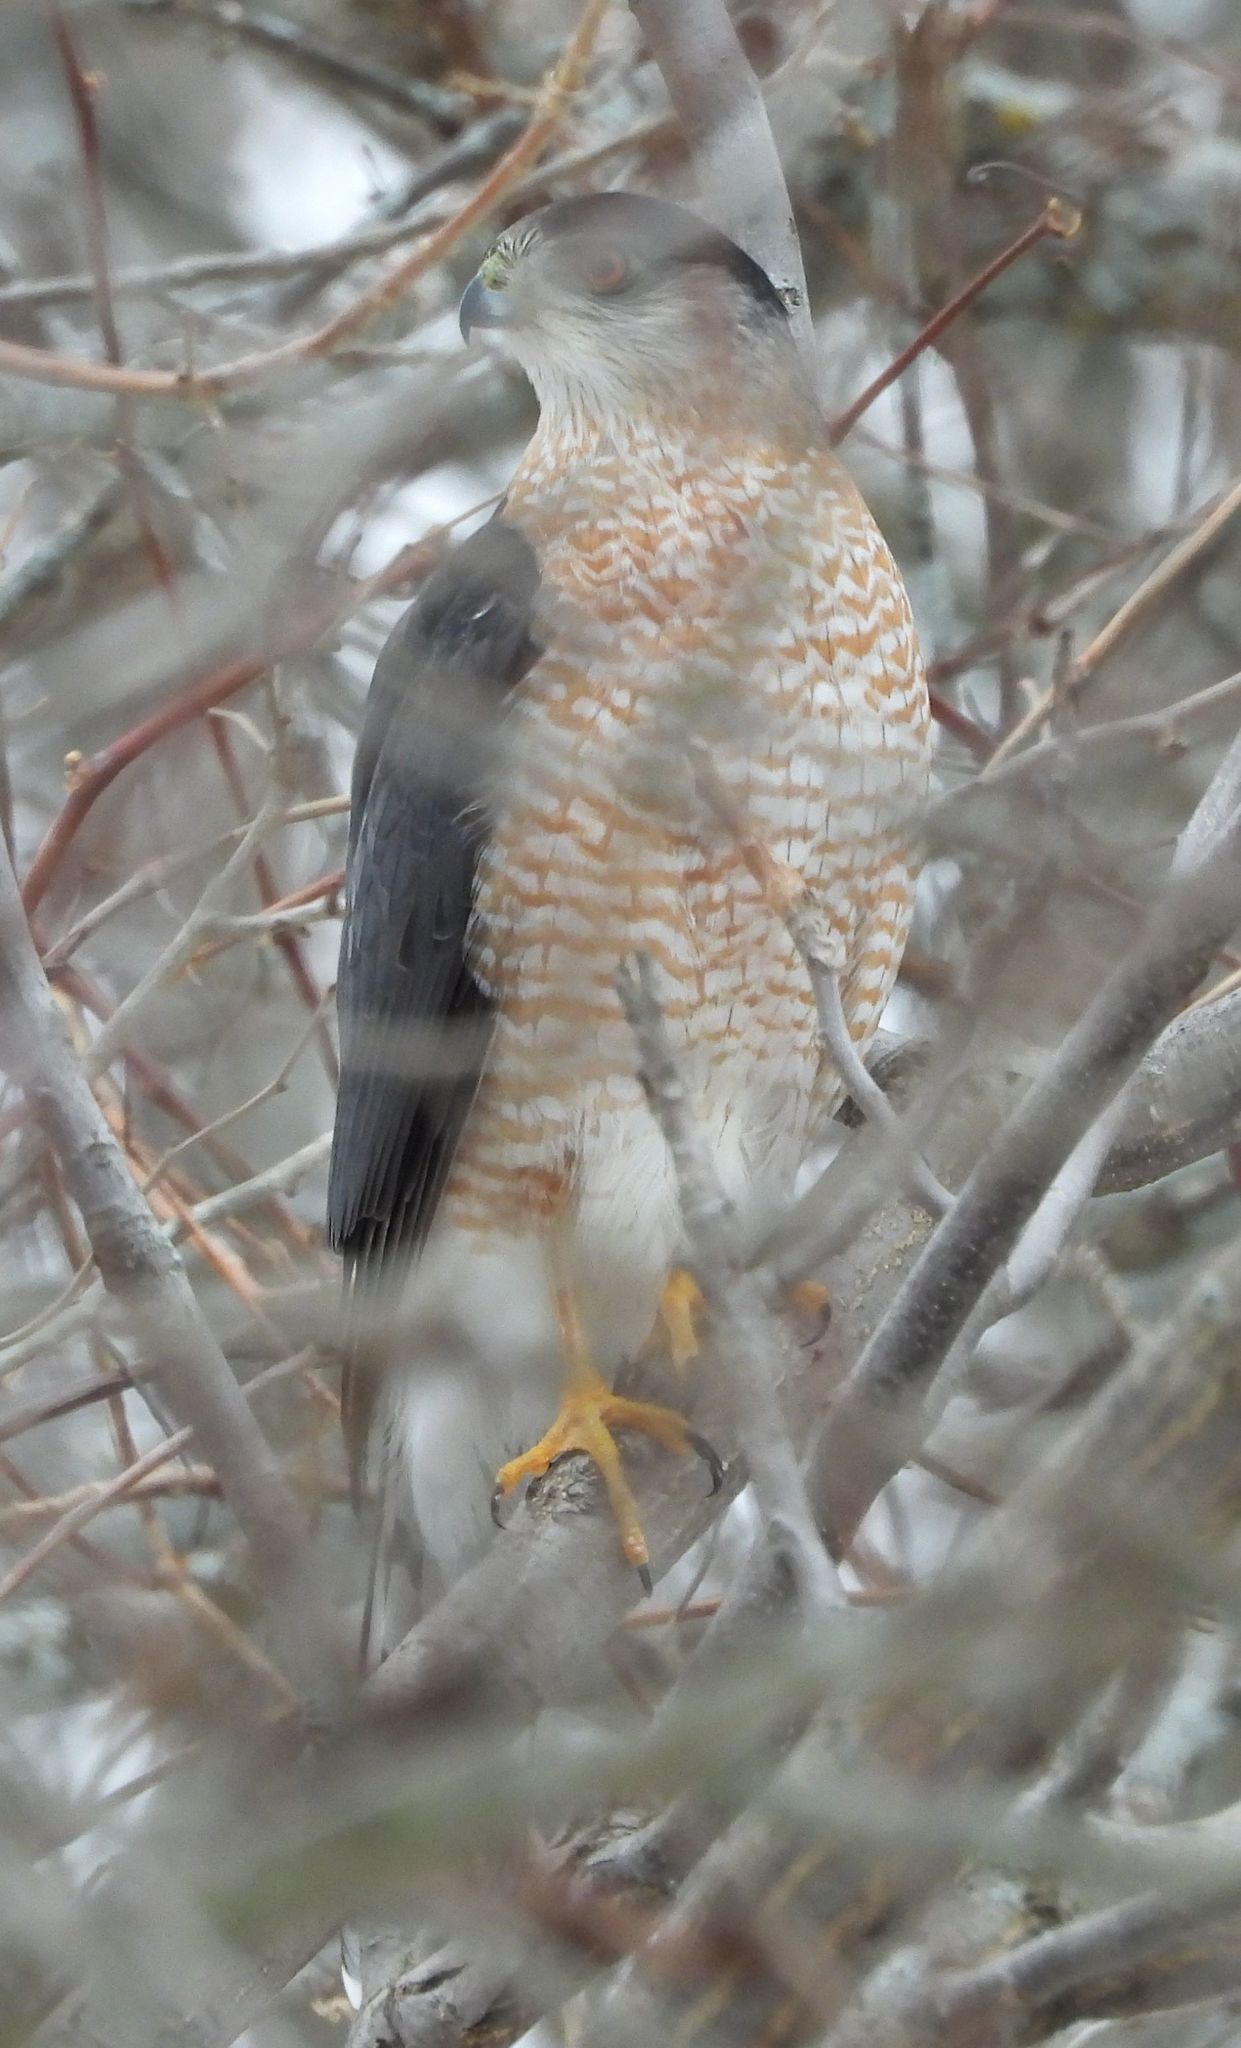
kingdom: Animalia
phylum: Chordata
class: Aves
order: Accipitriformes
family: Accipitridae
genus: Accipiter
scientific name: Accipiter cooperii
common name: Cooper's hawk
